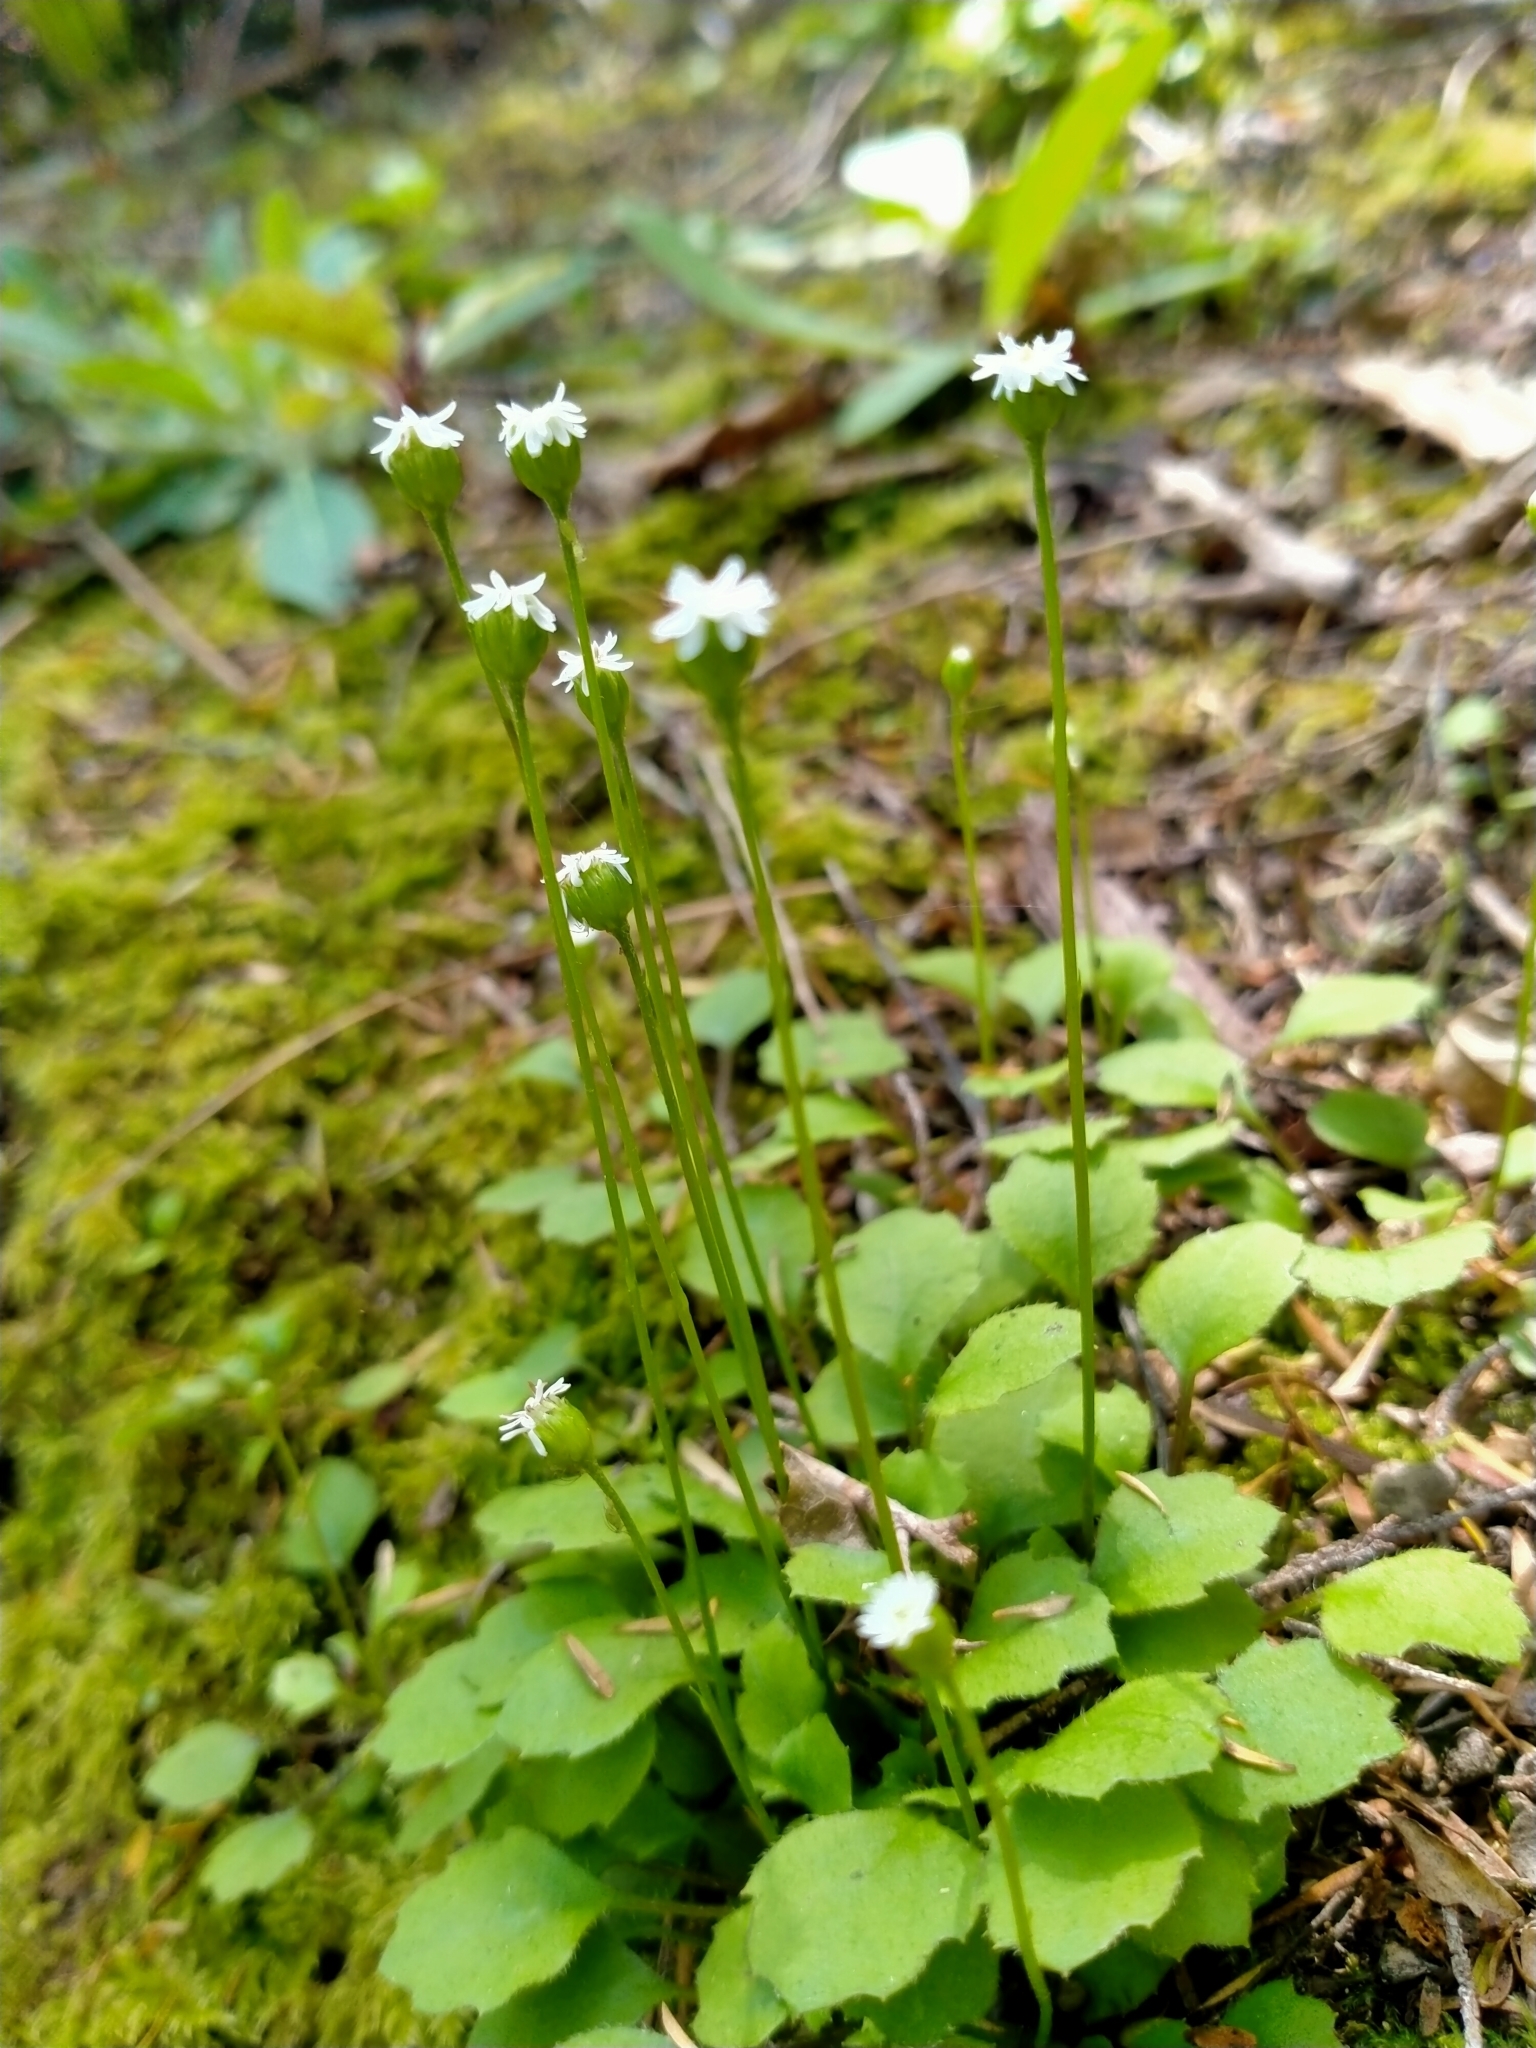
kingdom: Plantae
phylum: Tracheophyta
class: Magnoliopsida
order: Asterales
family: Asteraceae
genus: Lagenophora
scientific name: Lagenophora strangulata
